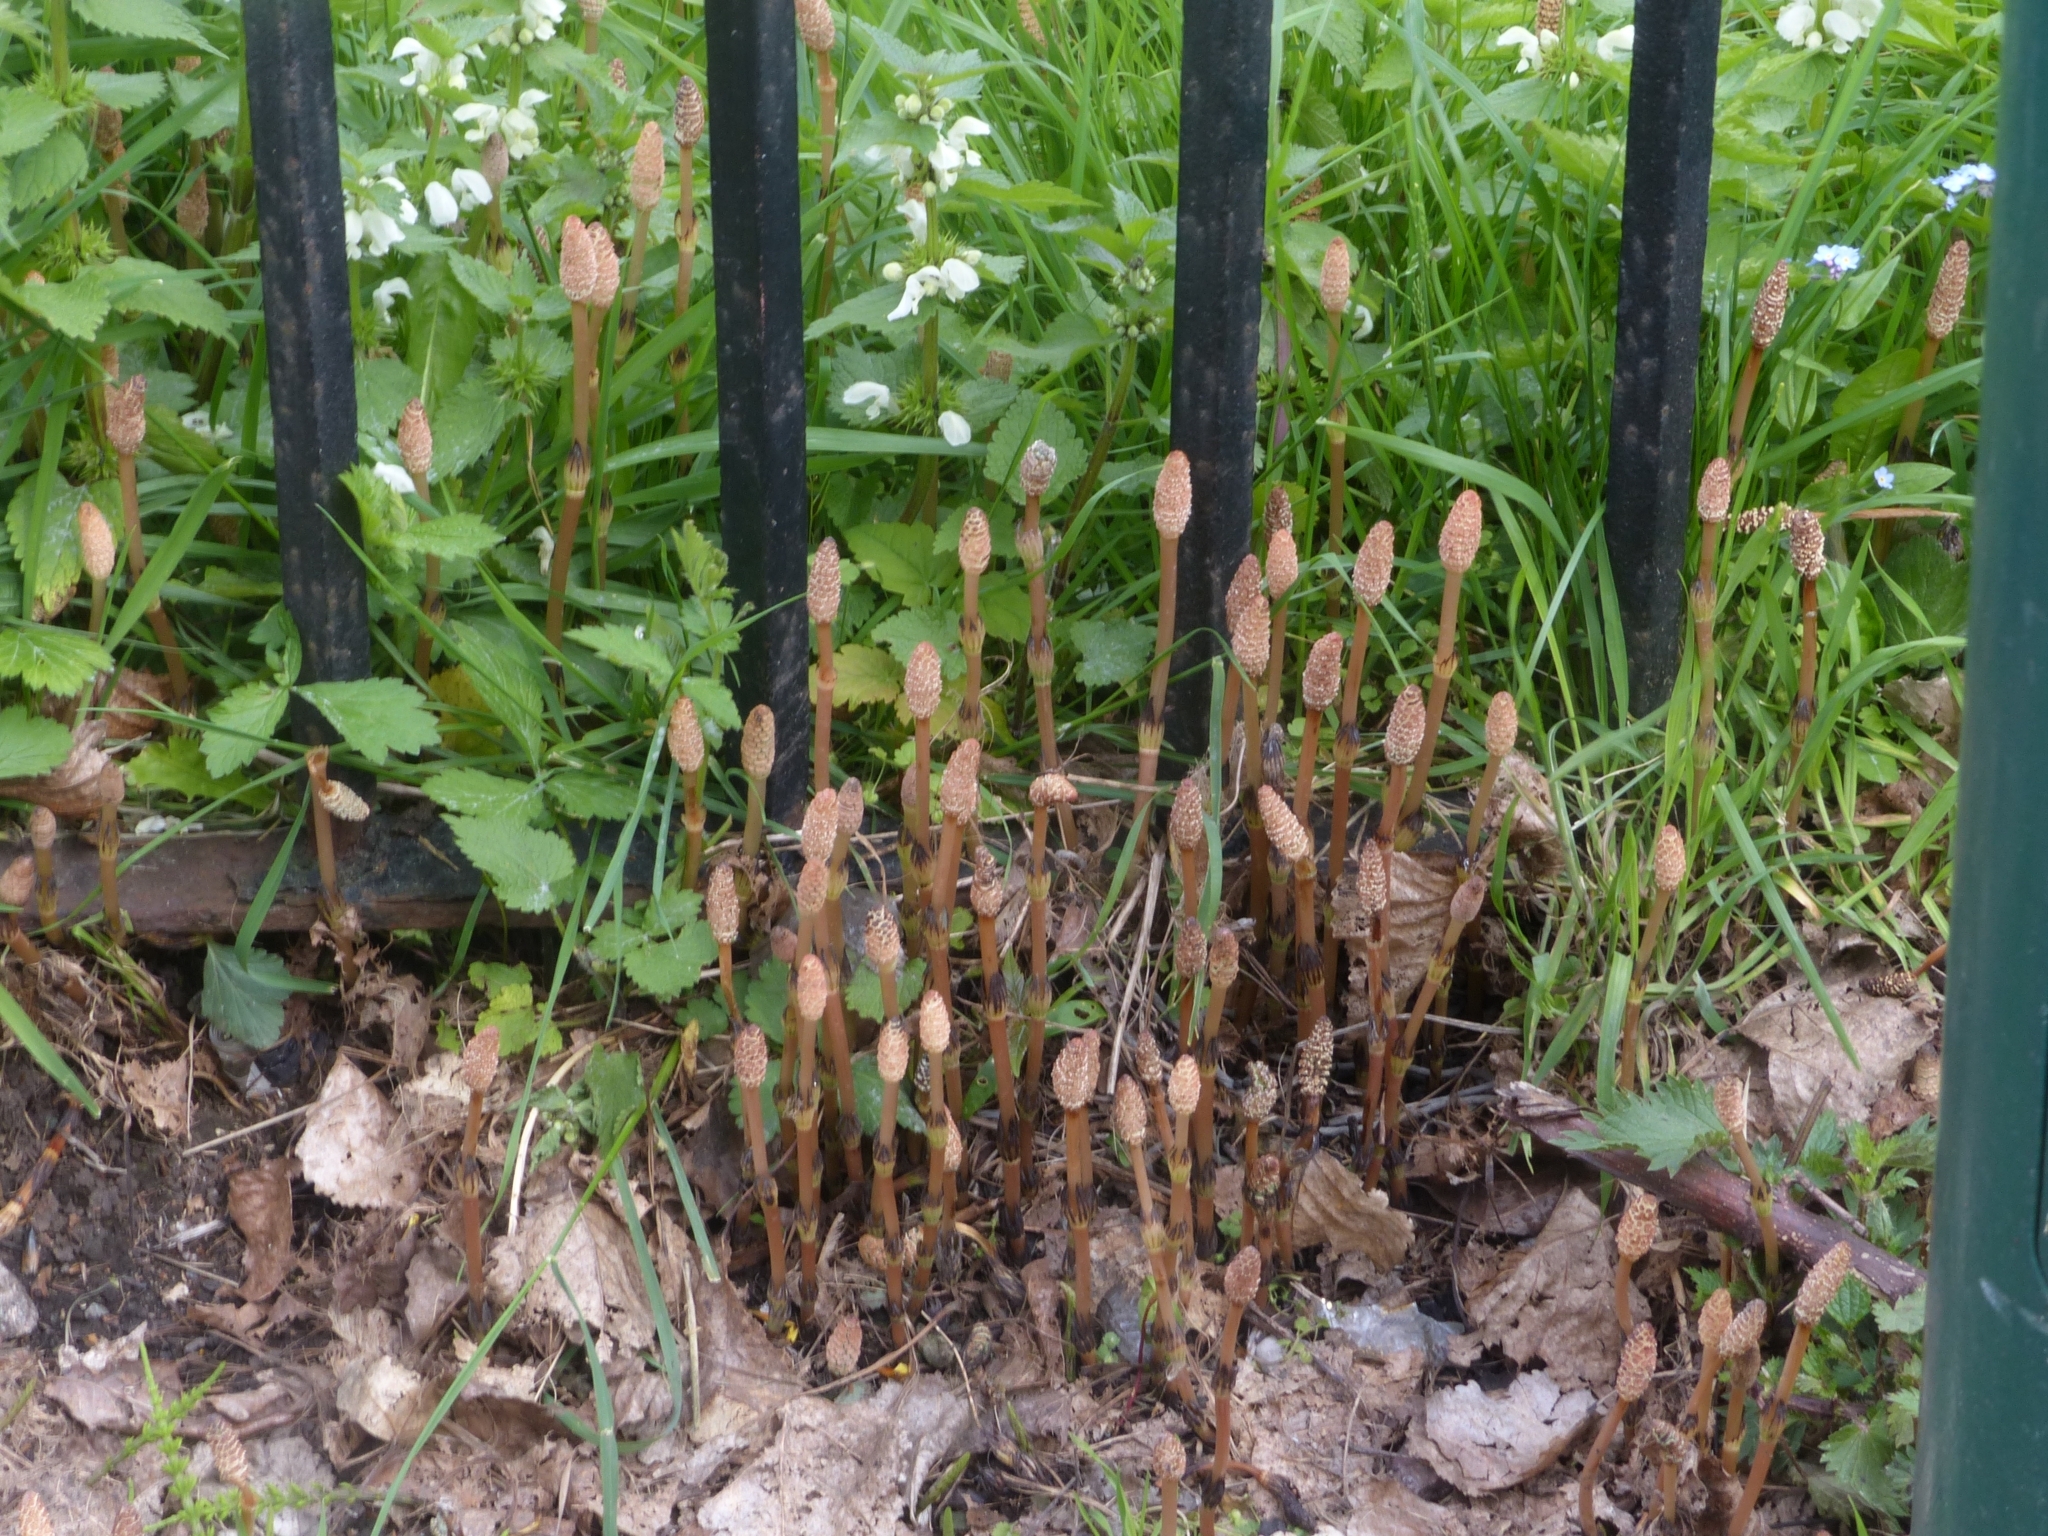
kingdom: Plantae
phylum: Tracheophyta
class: Polypodiopsida
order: Equisetales
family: Equisetaceae
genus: Equisetum
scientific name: Equisetum arvense
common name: Field horsetail
